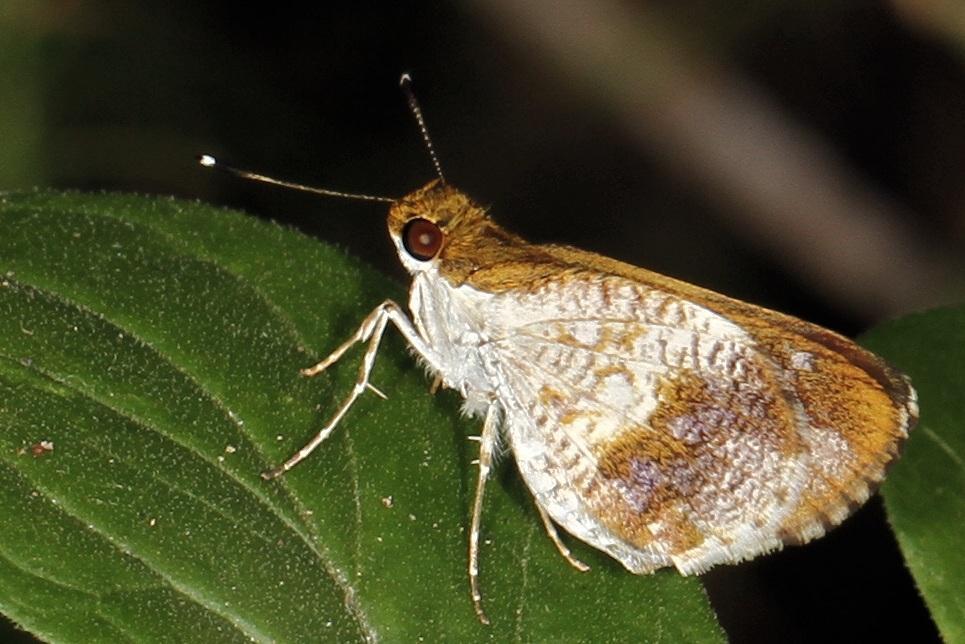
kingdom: Animalia
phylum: Arthropoda
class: Insecta
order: Lepidoptera
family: Hesperiidae
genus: Acleros
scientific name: Acleros mackenii
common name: Shade dart
